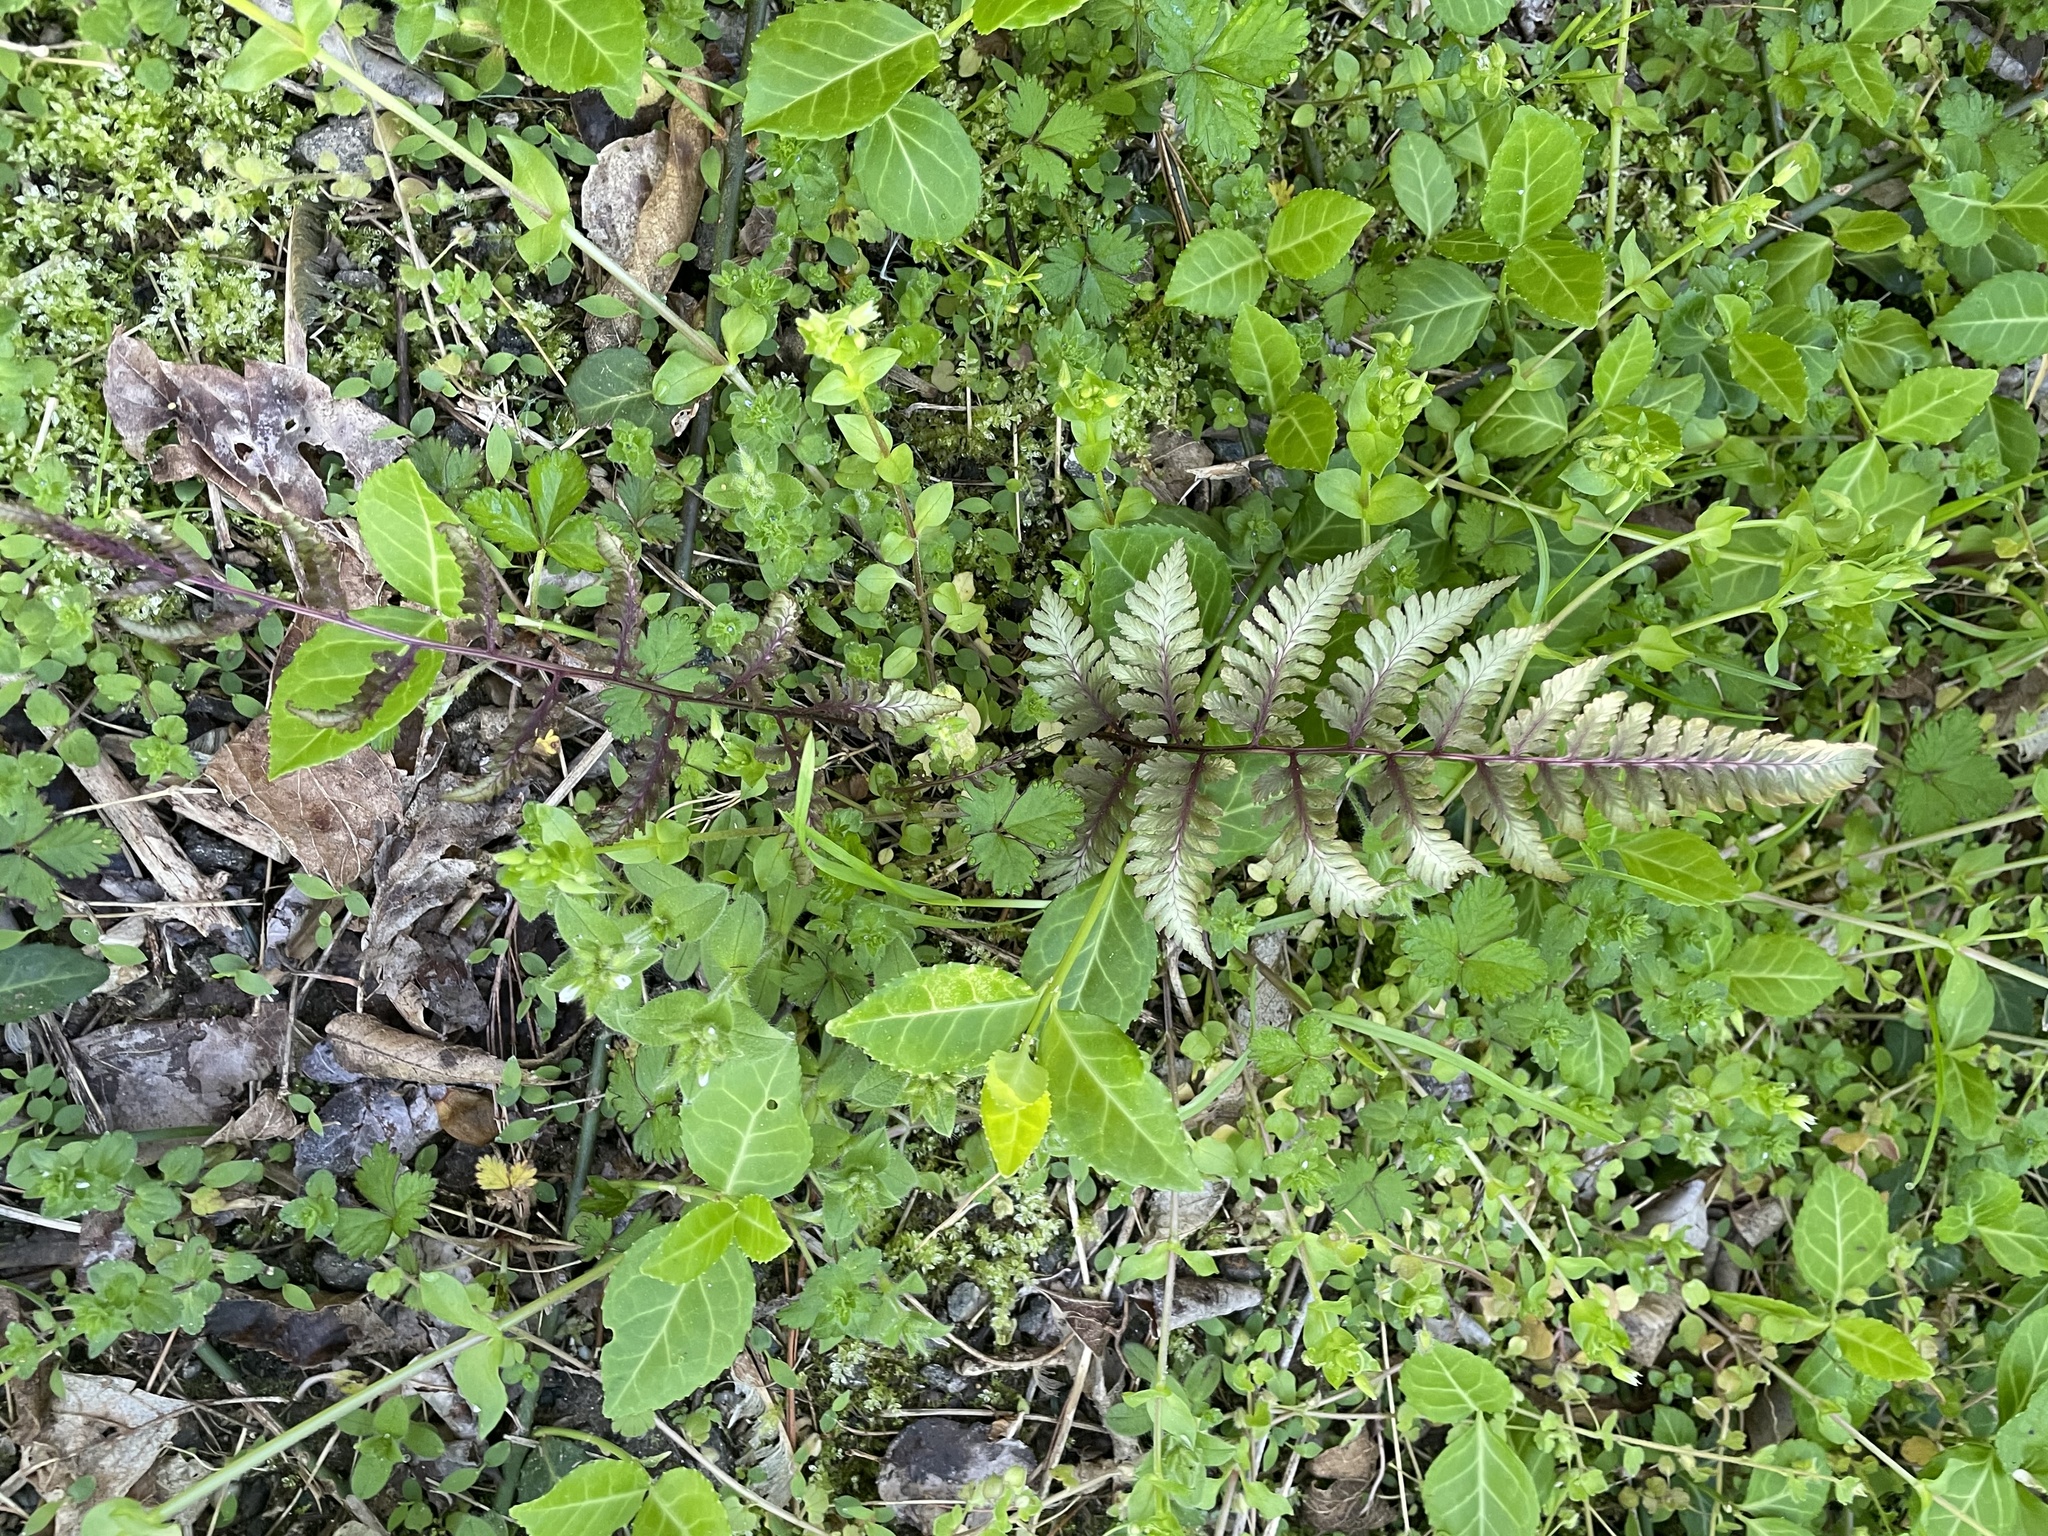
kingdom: Plantae
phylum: Tracheophyta
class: Polypodiopsida
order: Polypodiales
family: Athyriaceae
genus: Anisocampium
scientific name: Anisocampium niponicum
